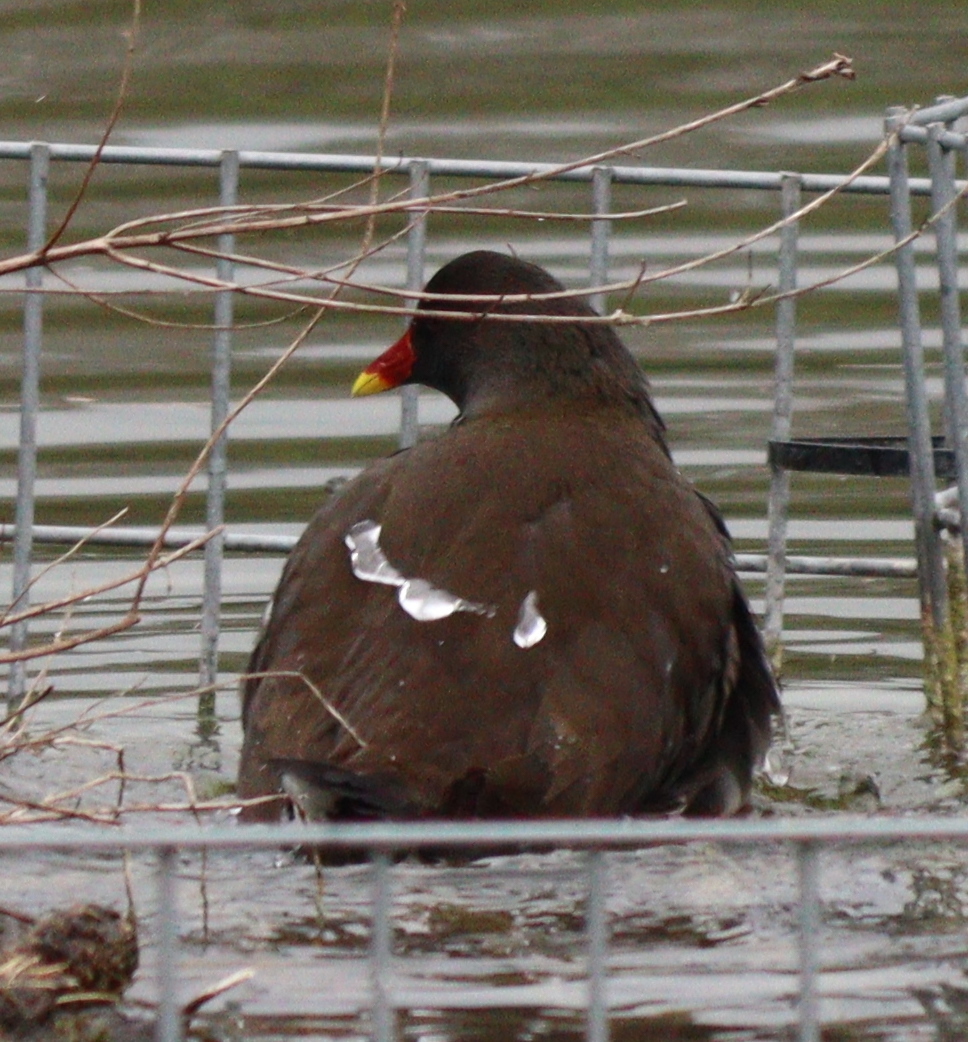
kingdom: Animalia
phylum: Chordata
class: Aves
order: Gruiformes
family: Rallidae
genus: Gallinula
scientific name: Gallinula chloropus
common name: Common moorhen
